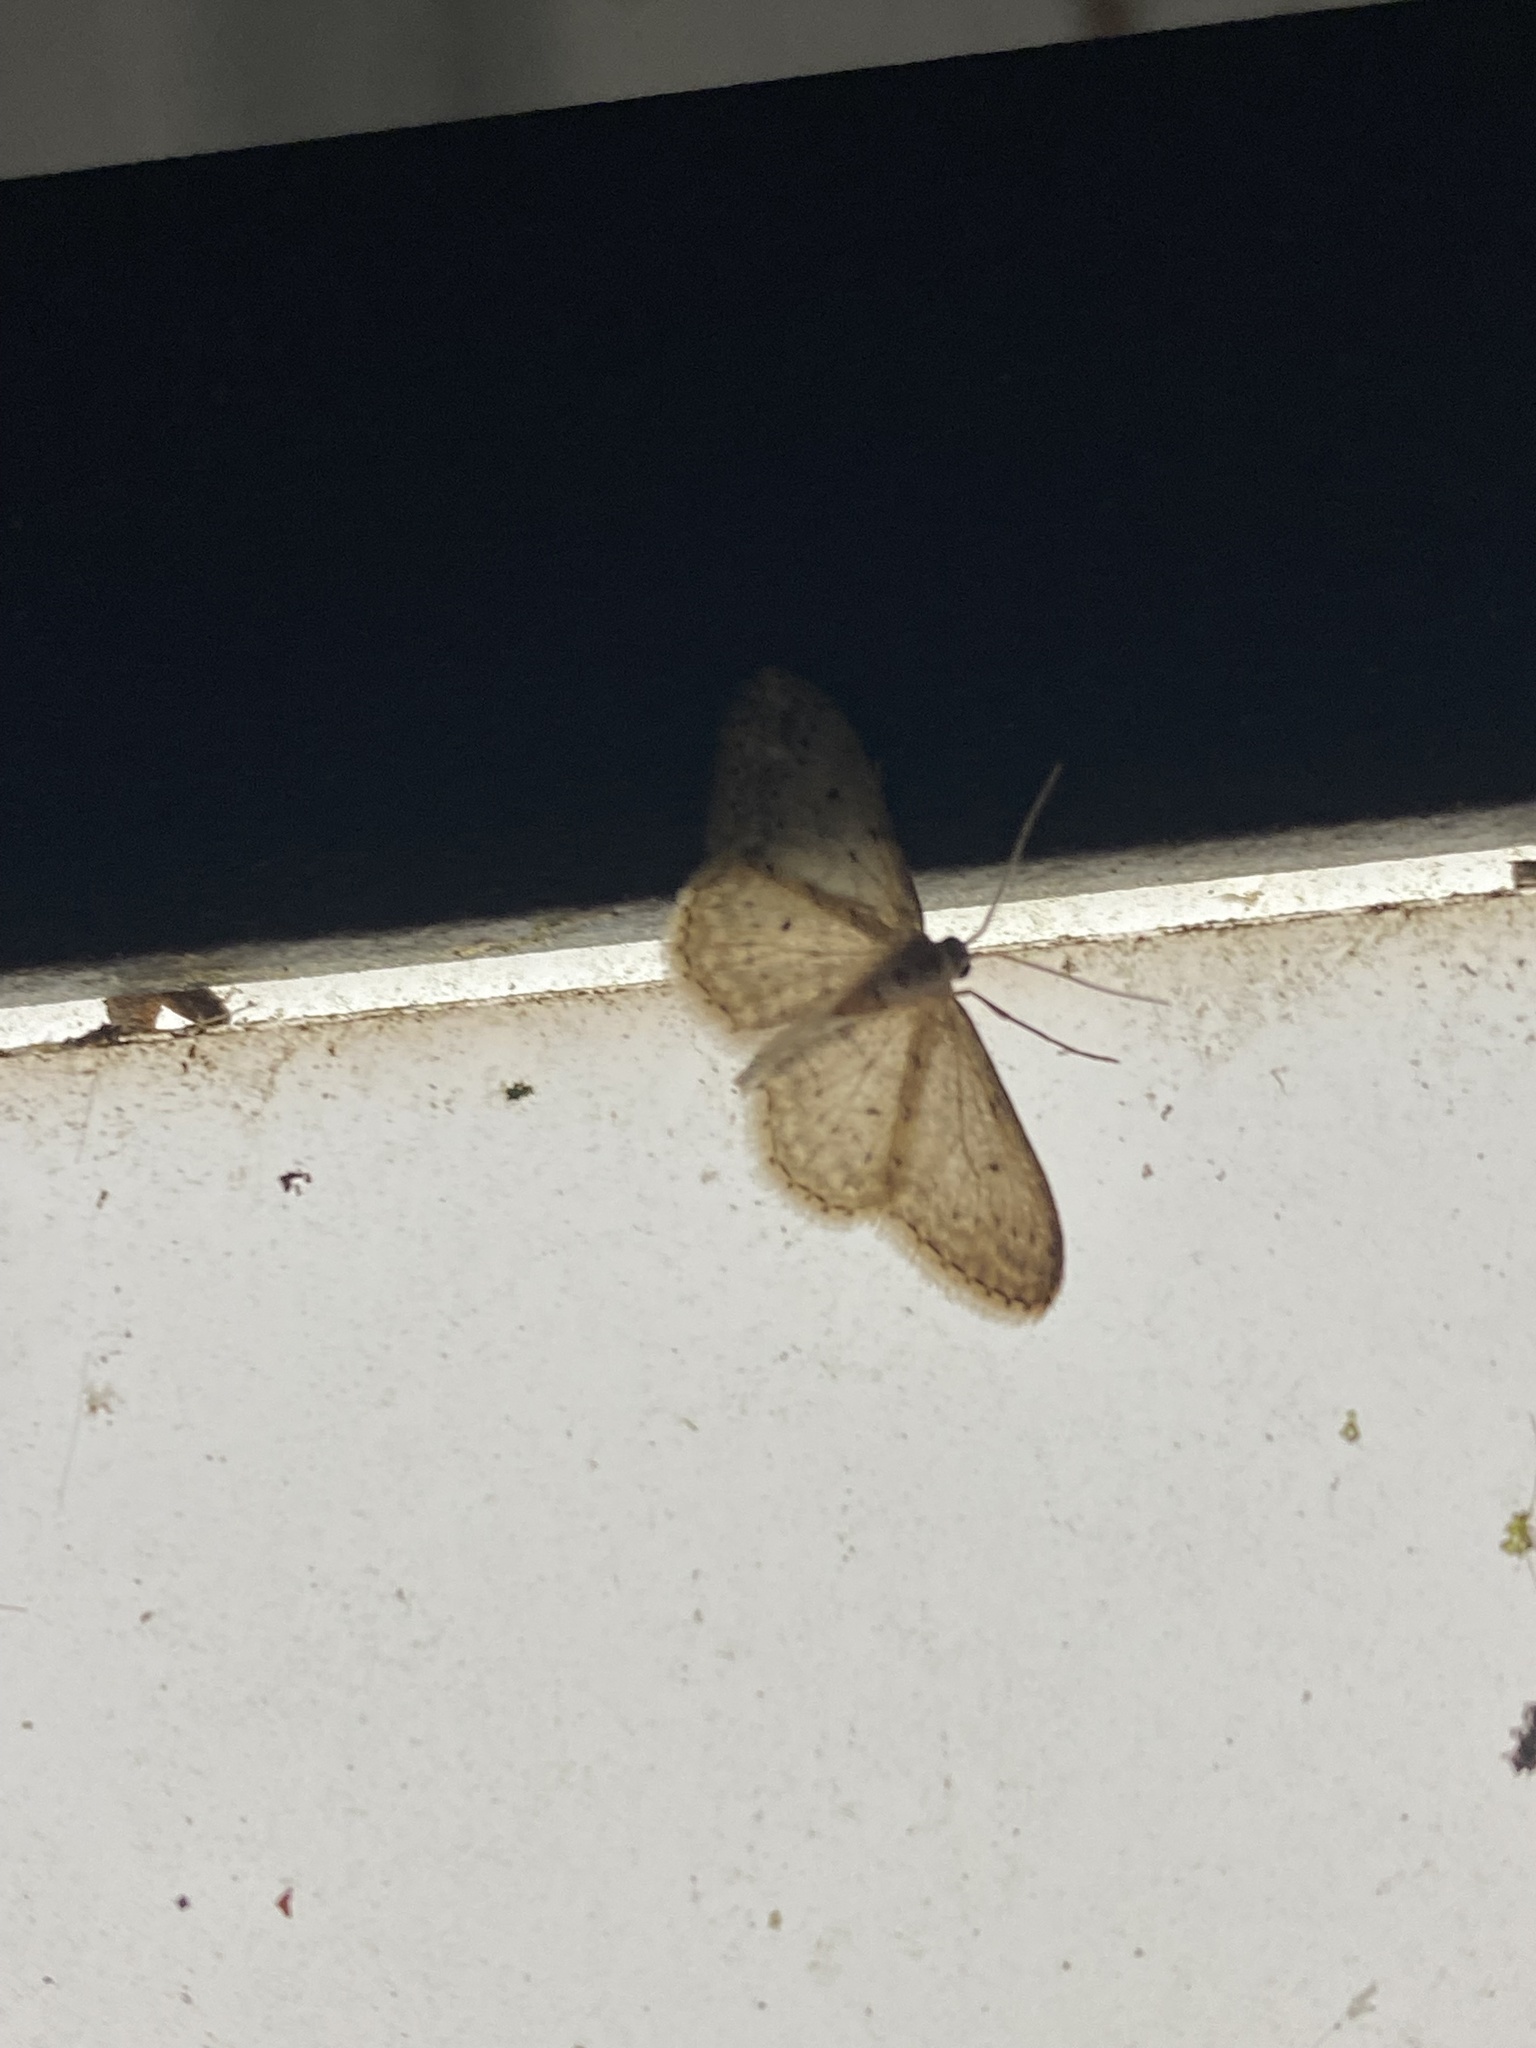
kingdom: Animalia
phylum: Arthropoda
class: Insecta
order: Lepidoptera
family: Geometridae
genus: Idaea
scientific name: Idaea seriata
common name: Small dusty wave
